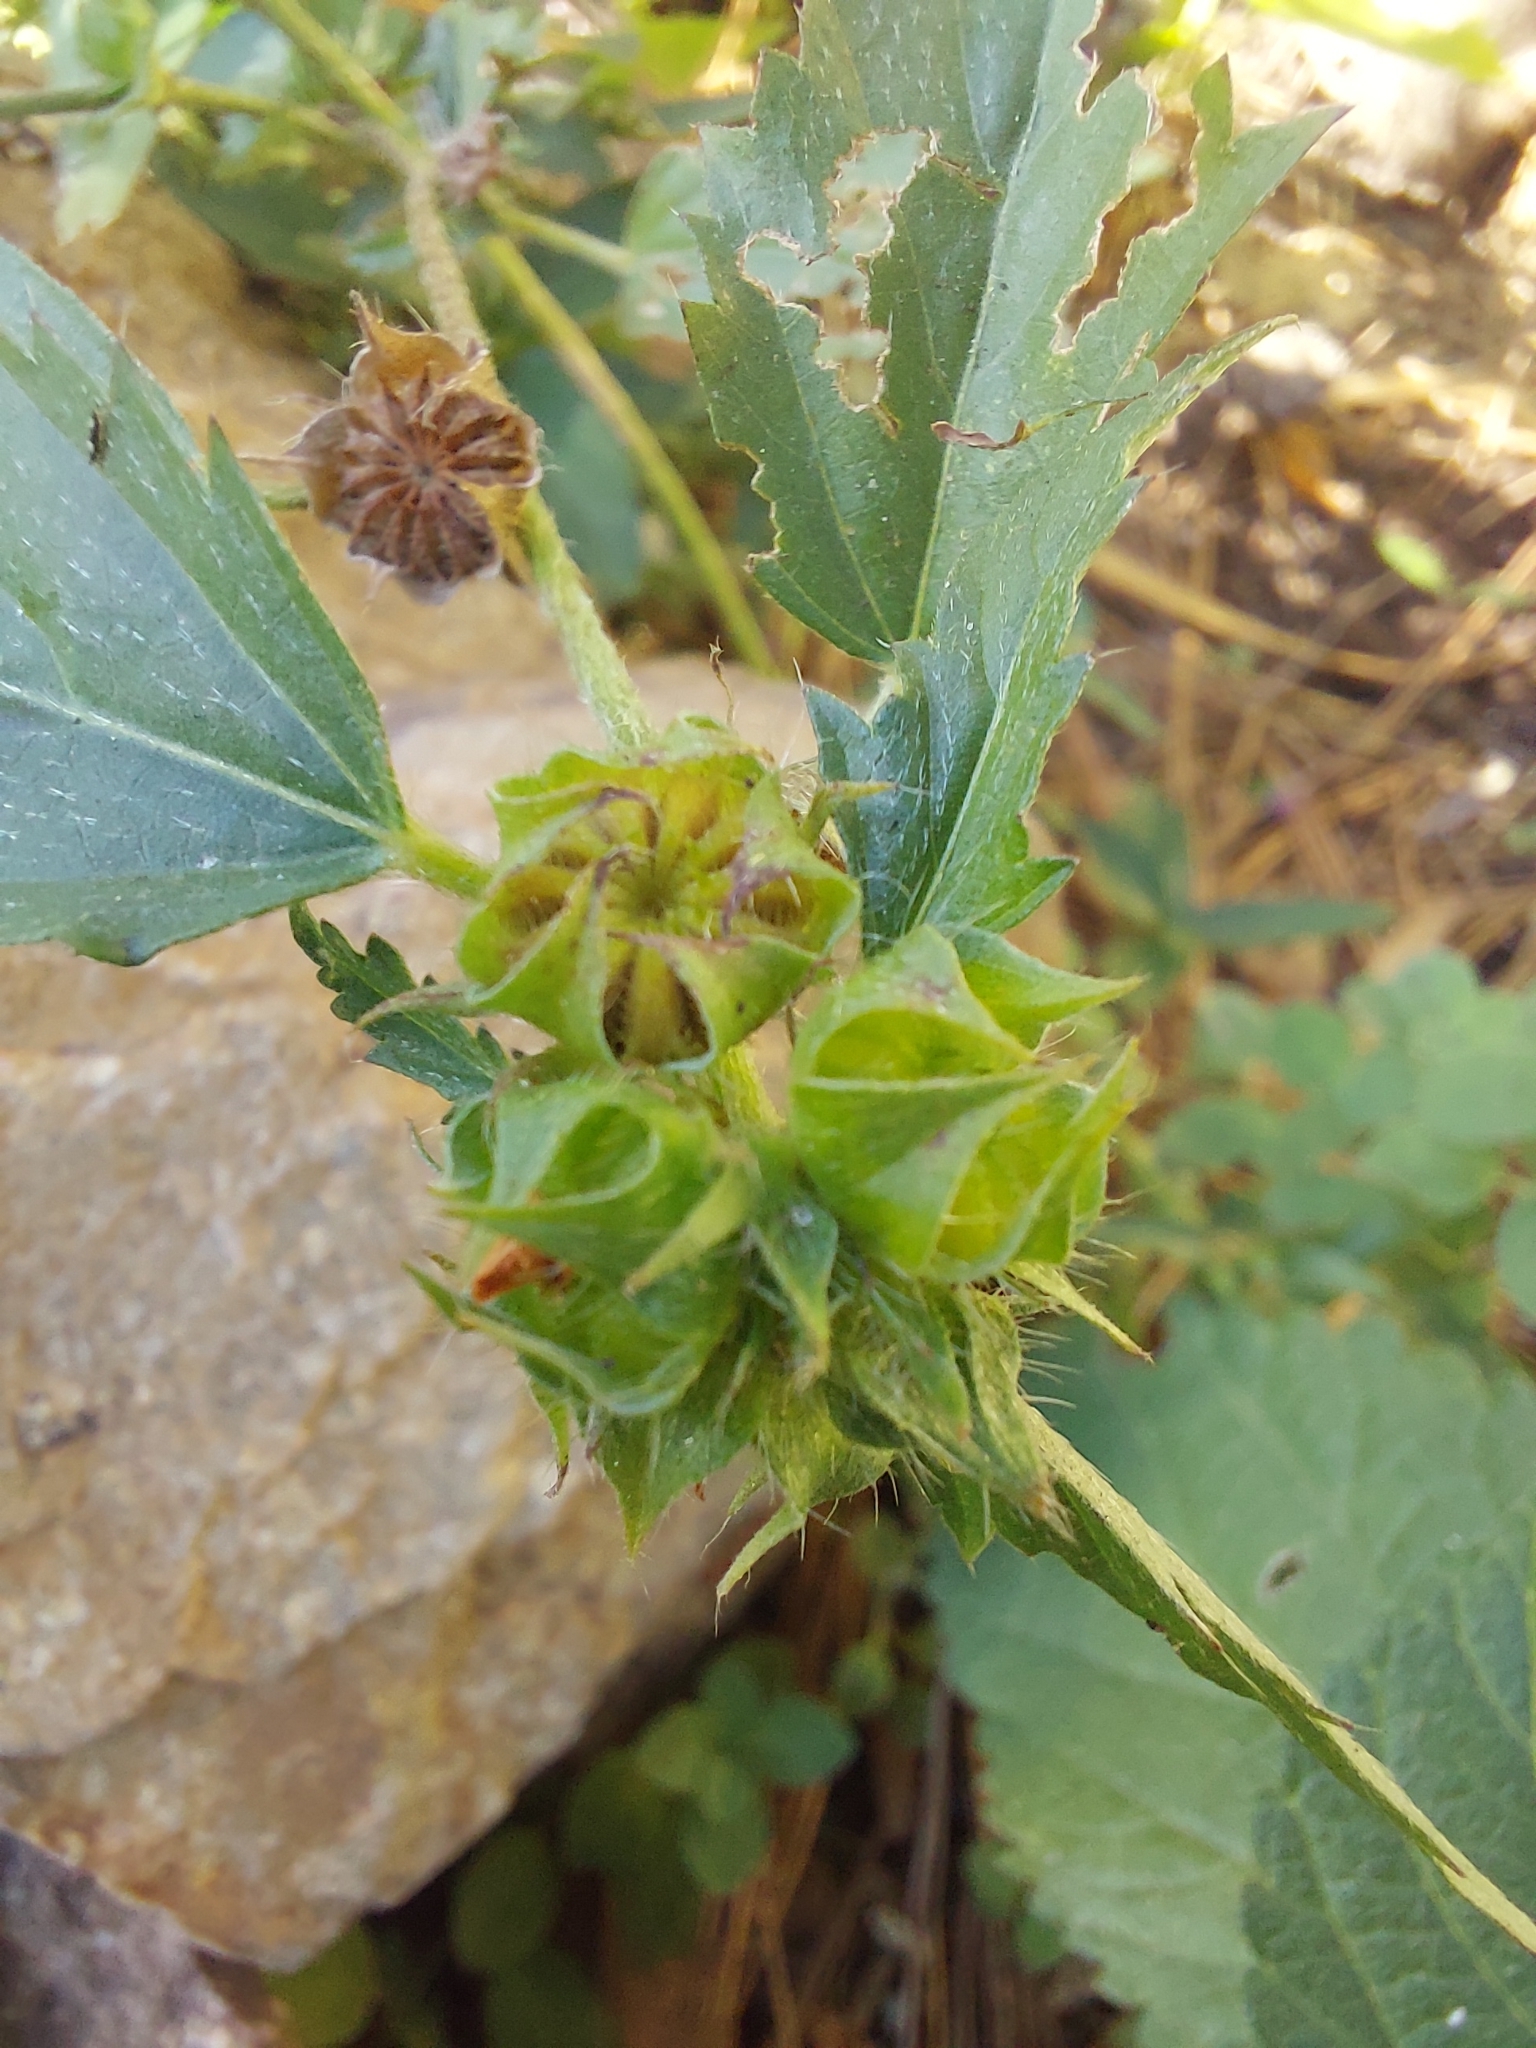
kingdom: Plantae
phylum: Tracheophyta
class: Magnoliopsida
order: Malvales
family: Malvaceae
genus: Malvastrum
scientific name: Malvastrum coromandelianum
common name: Threelobe false mallow
